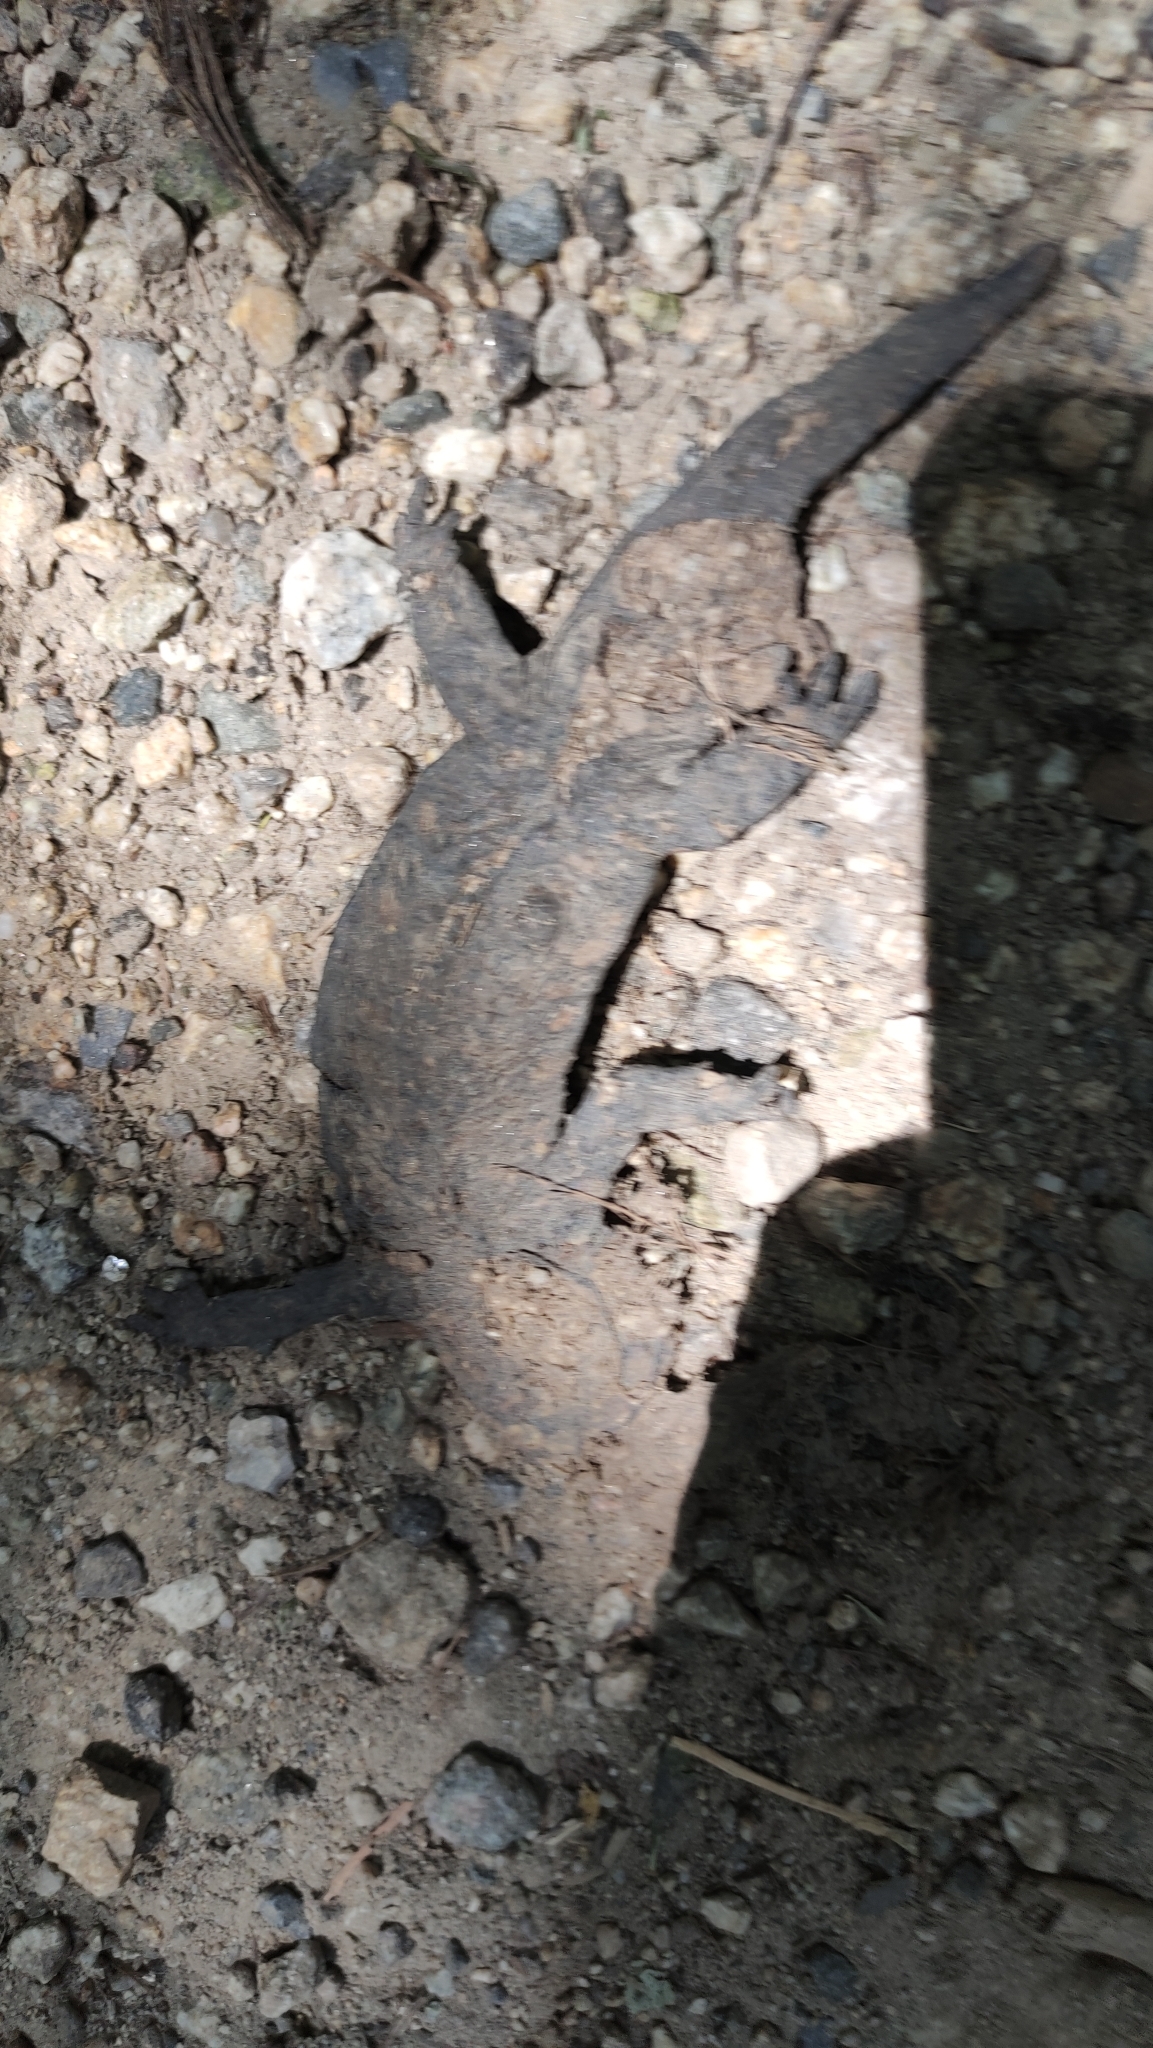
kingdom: Animalia
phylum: Chordata
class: Amphibia
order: Caudata
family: Salamandridae
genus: Salamandra
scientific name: Salamandra salamandra
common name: Fire salamander
